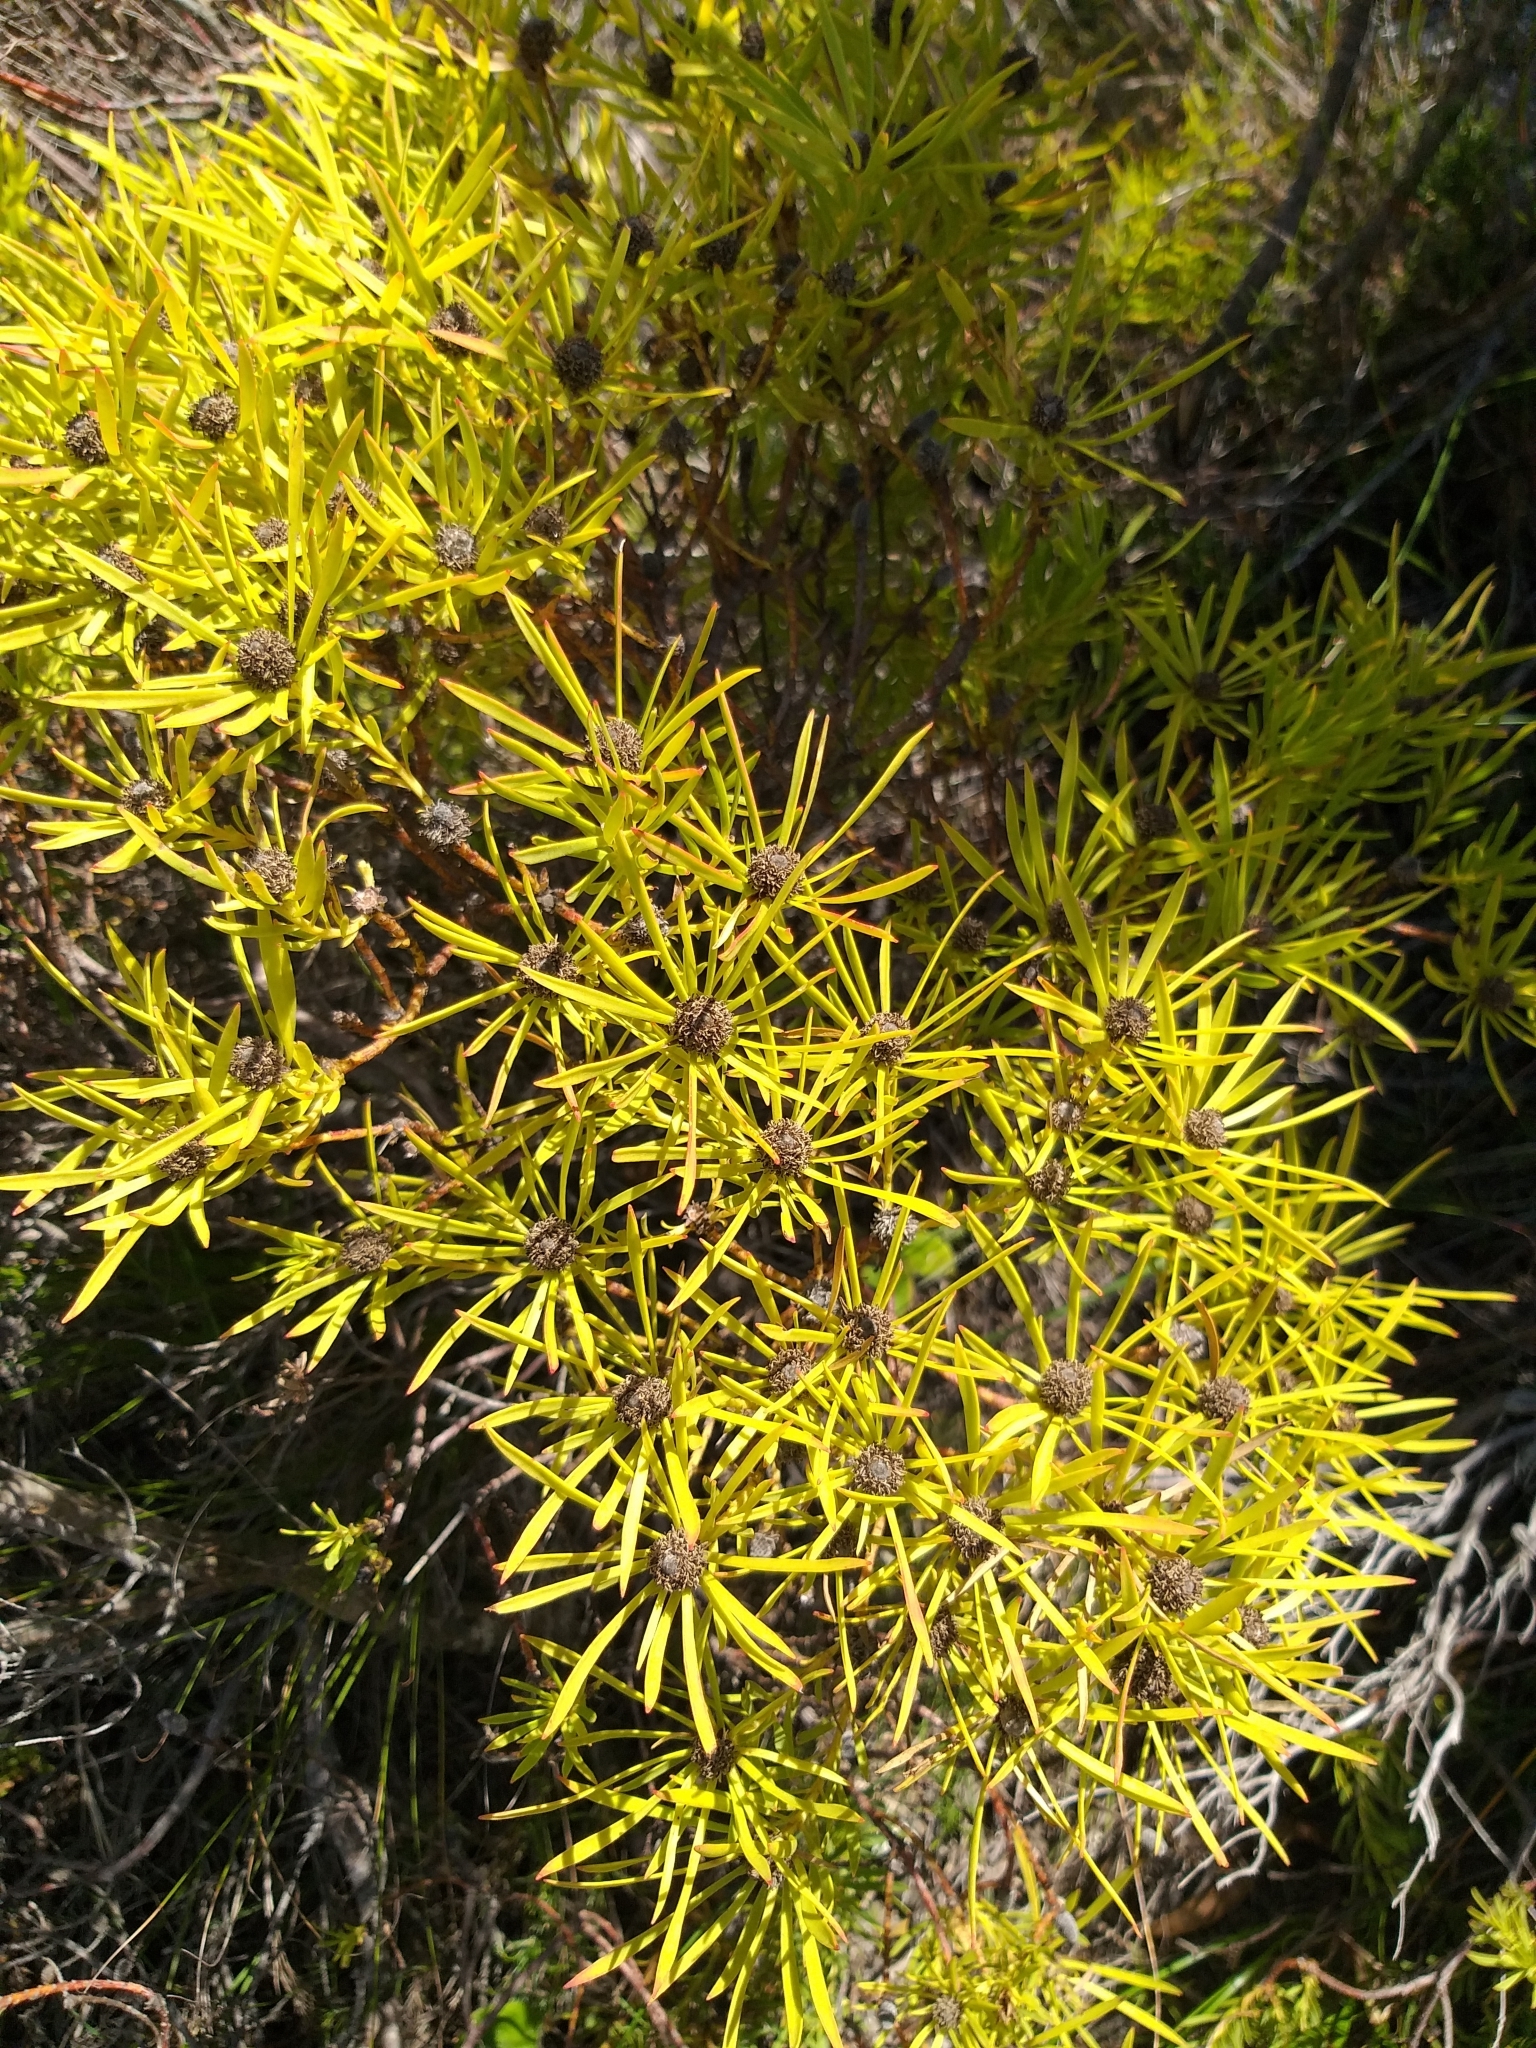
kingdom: Plantae
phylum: Tracheophyta
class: Magnoliopsida
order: Proteales
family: Proteaceae
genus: Leucadendron
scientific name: Leucadendron salignum
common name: Common sunshine conebush
